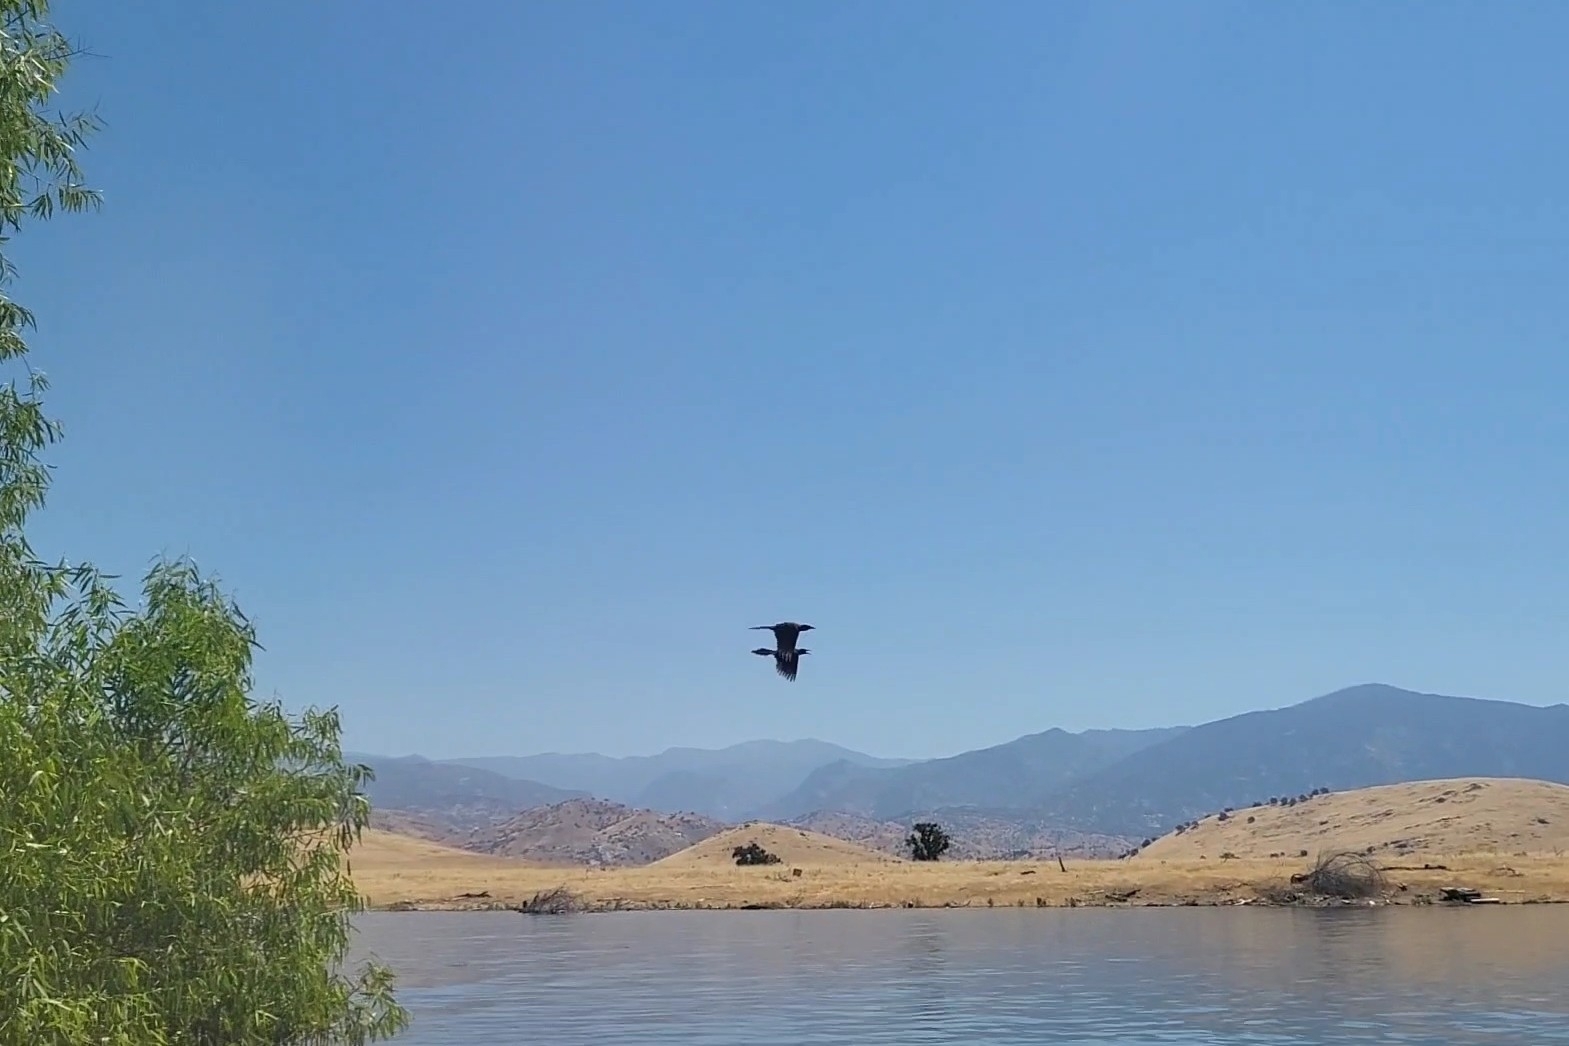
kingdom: Animalia
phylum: Chordata
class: Aves
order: Passeriformes
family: Icteridae
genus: Quiscalus
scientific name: Quiscalus mexicanus
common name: Great-tailed grackle
